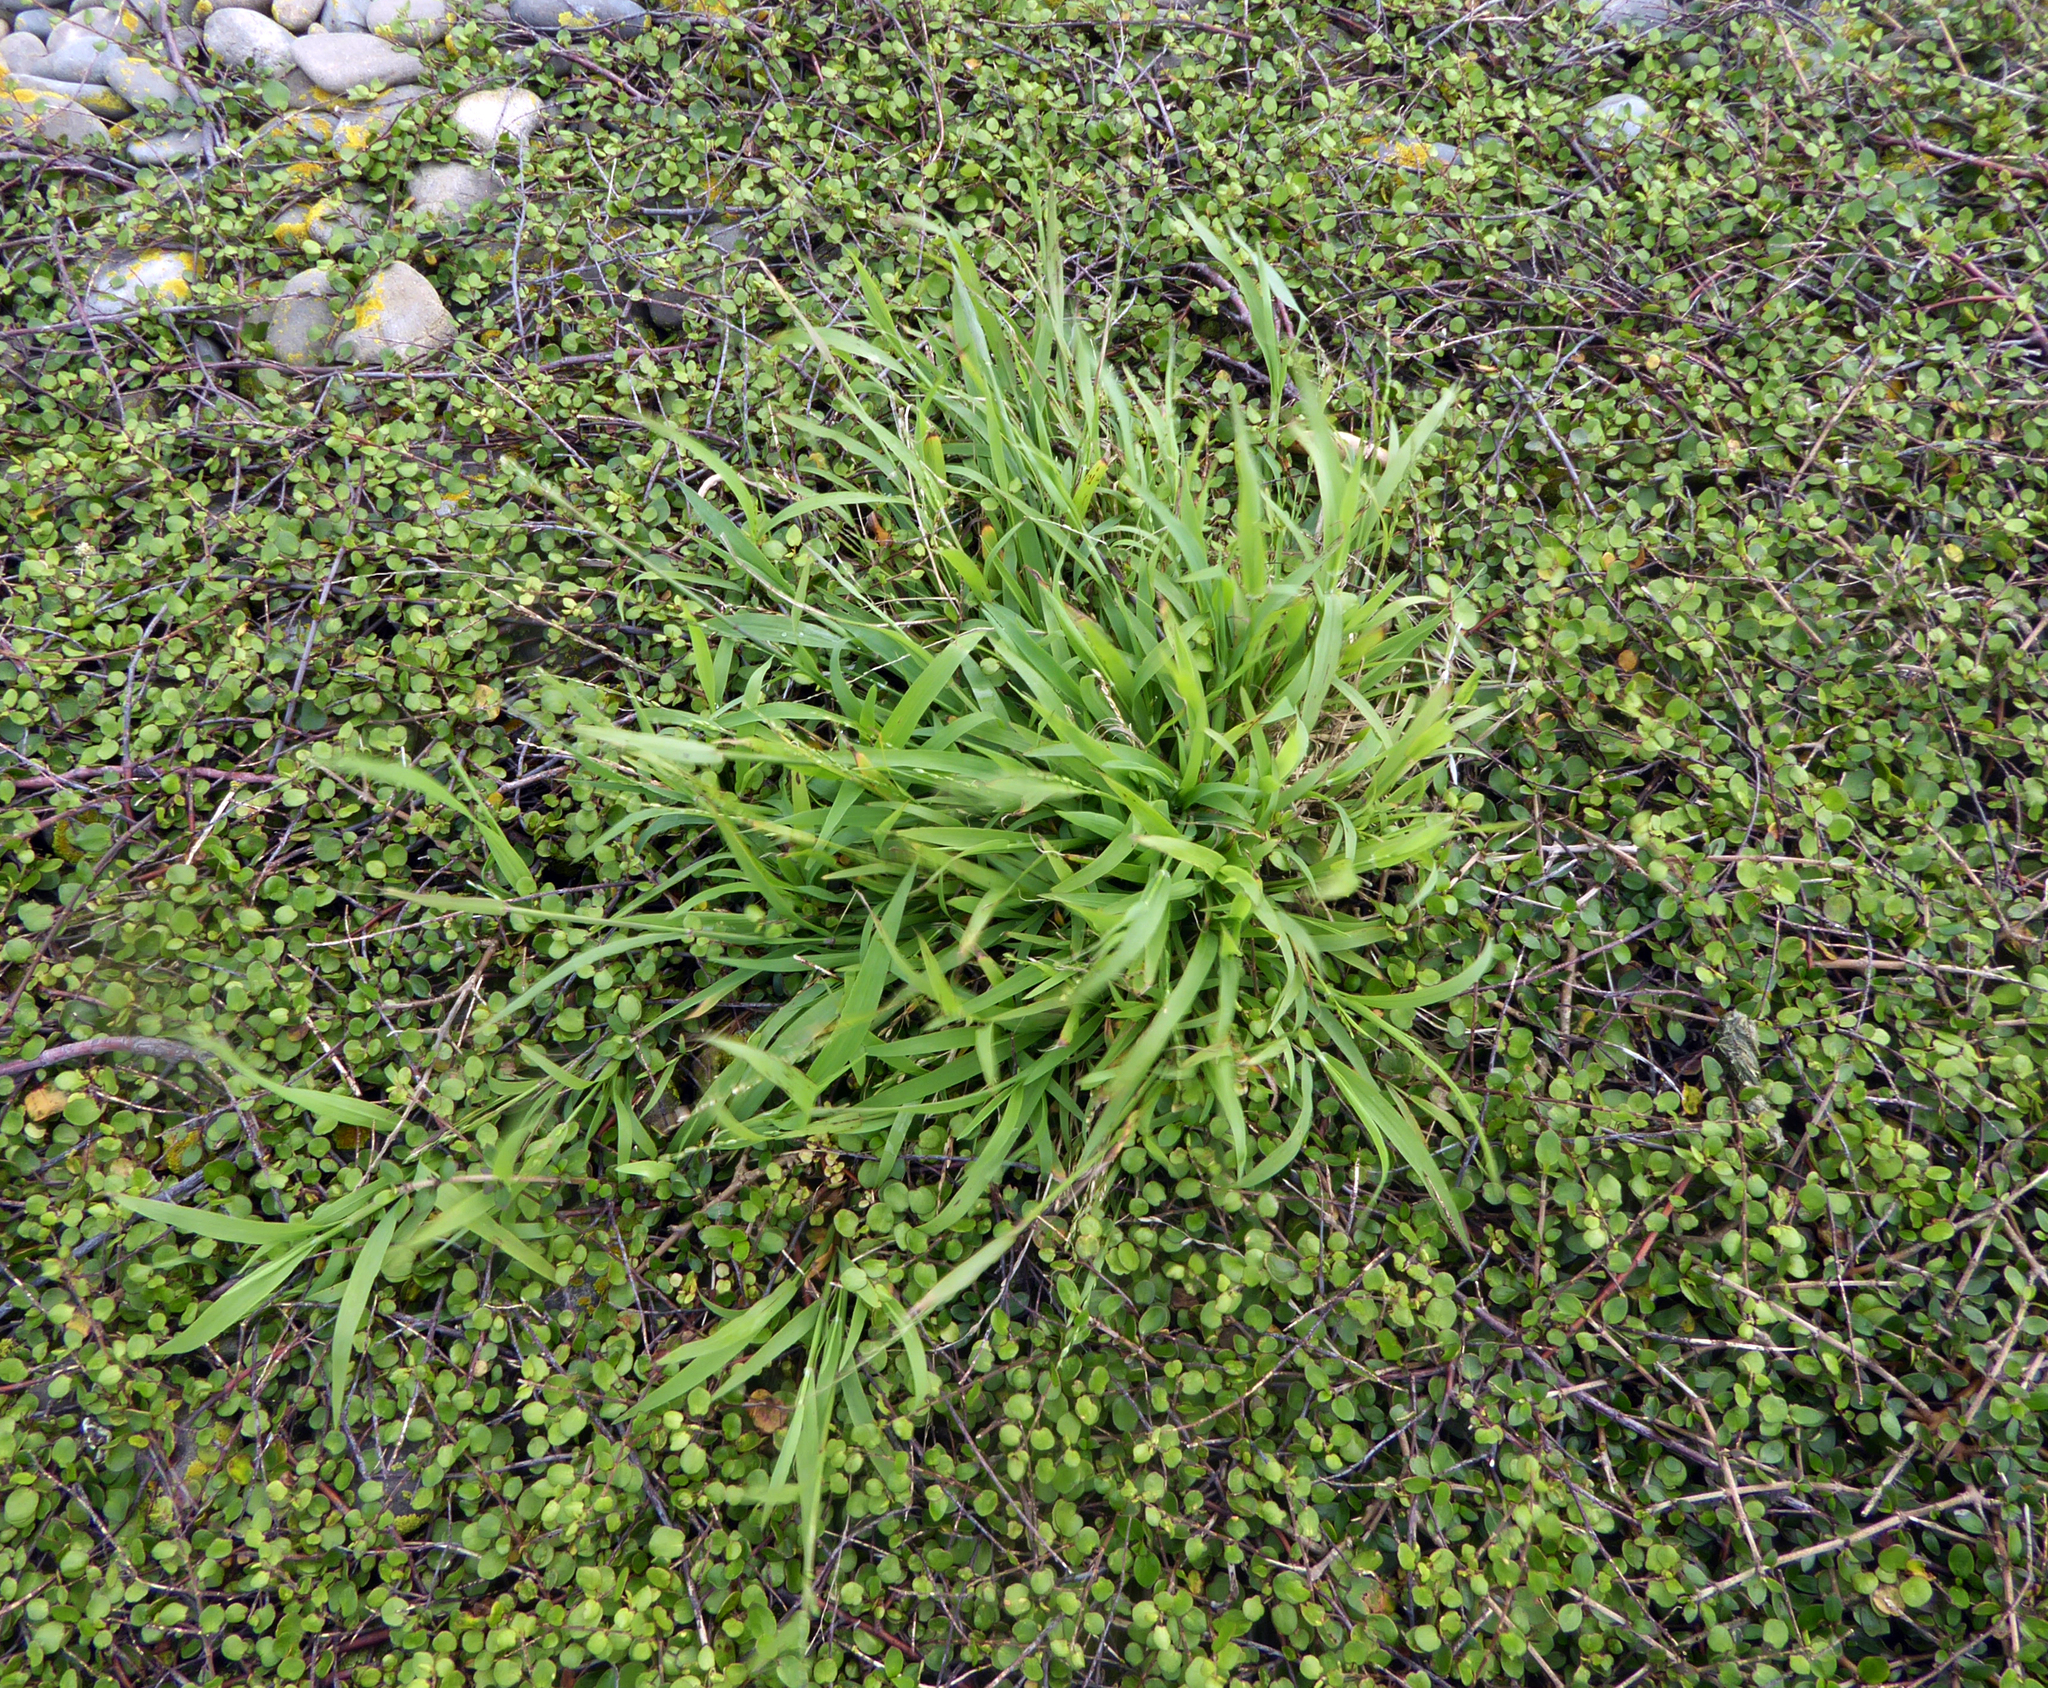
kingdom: Plantae
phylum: Tracheophyta
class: Liliopsida
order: Poales
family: Poaceae
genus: Ehrharta
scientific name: Ehrharta erecta
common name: Panic veldtgrass
